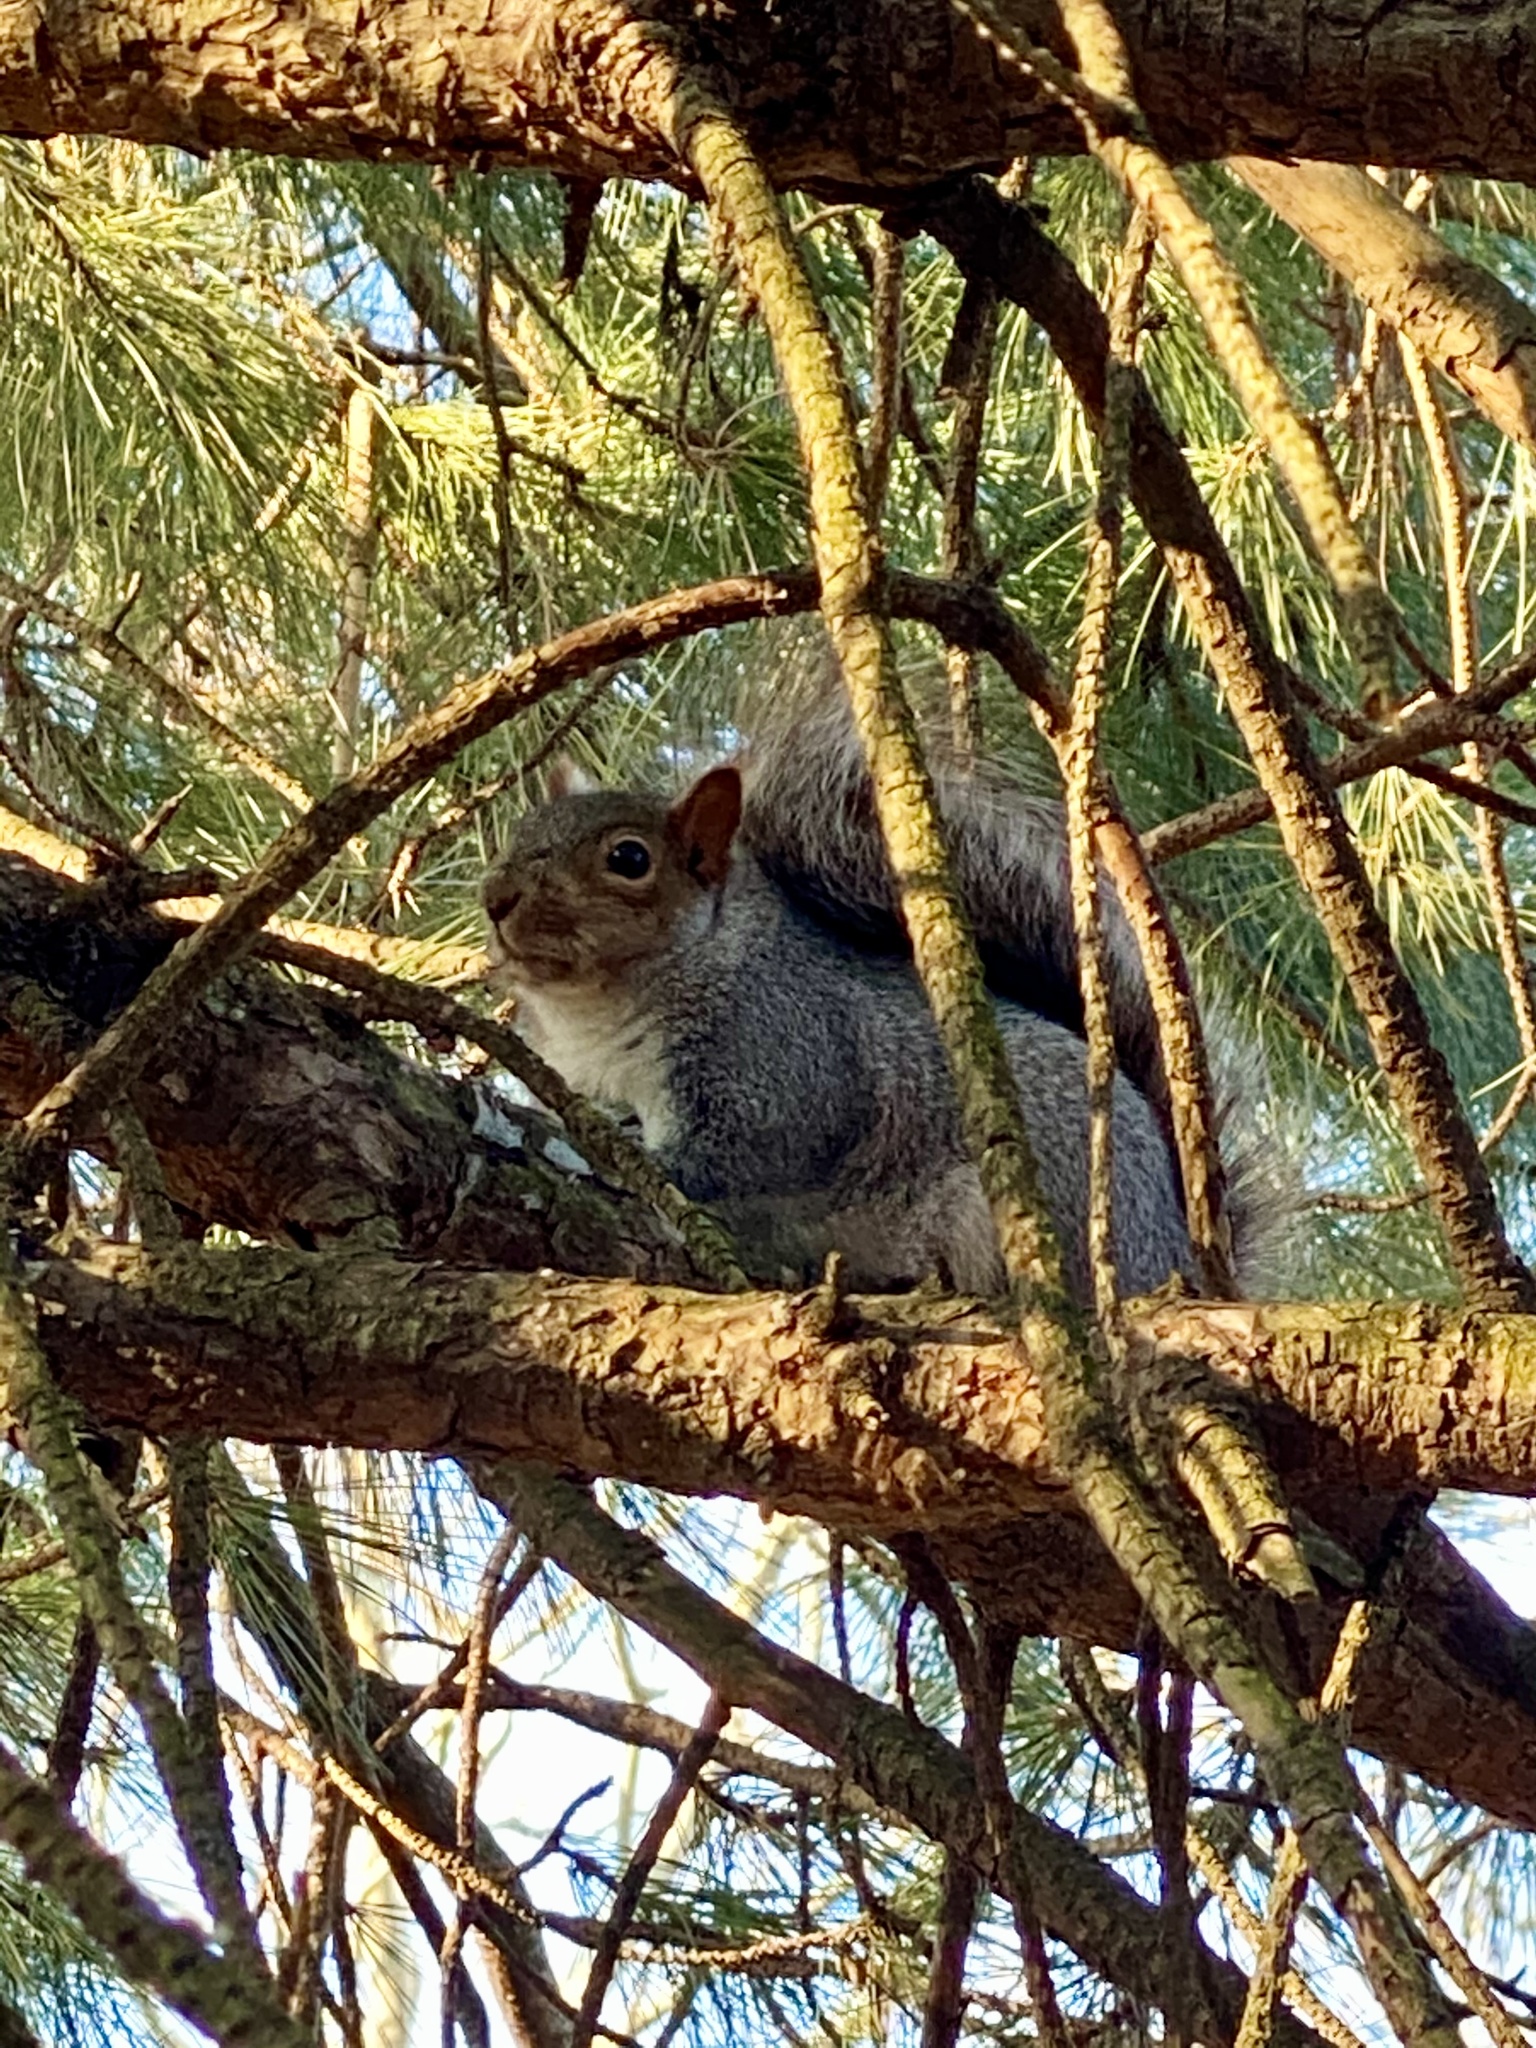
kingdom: Animalia
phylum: Chordata
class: Mammalia
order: Rodentia
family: Sciuridae
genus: Sciurus
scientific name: Sciurus carolinensis
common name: Eastern gray squirrel
